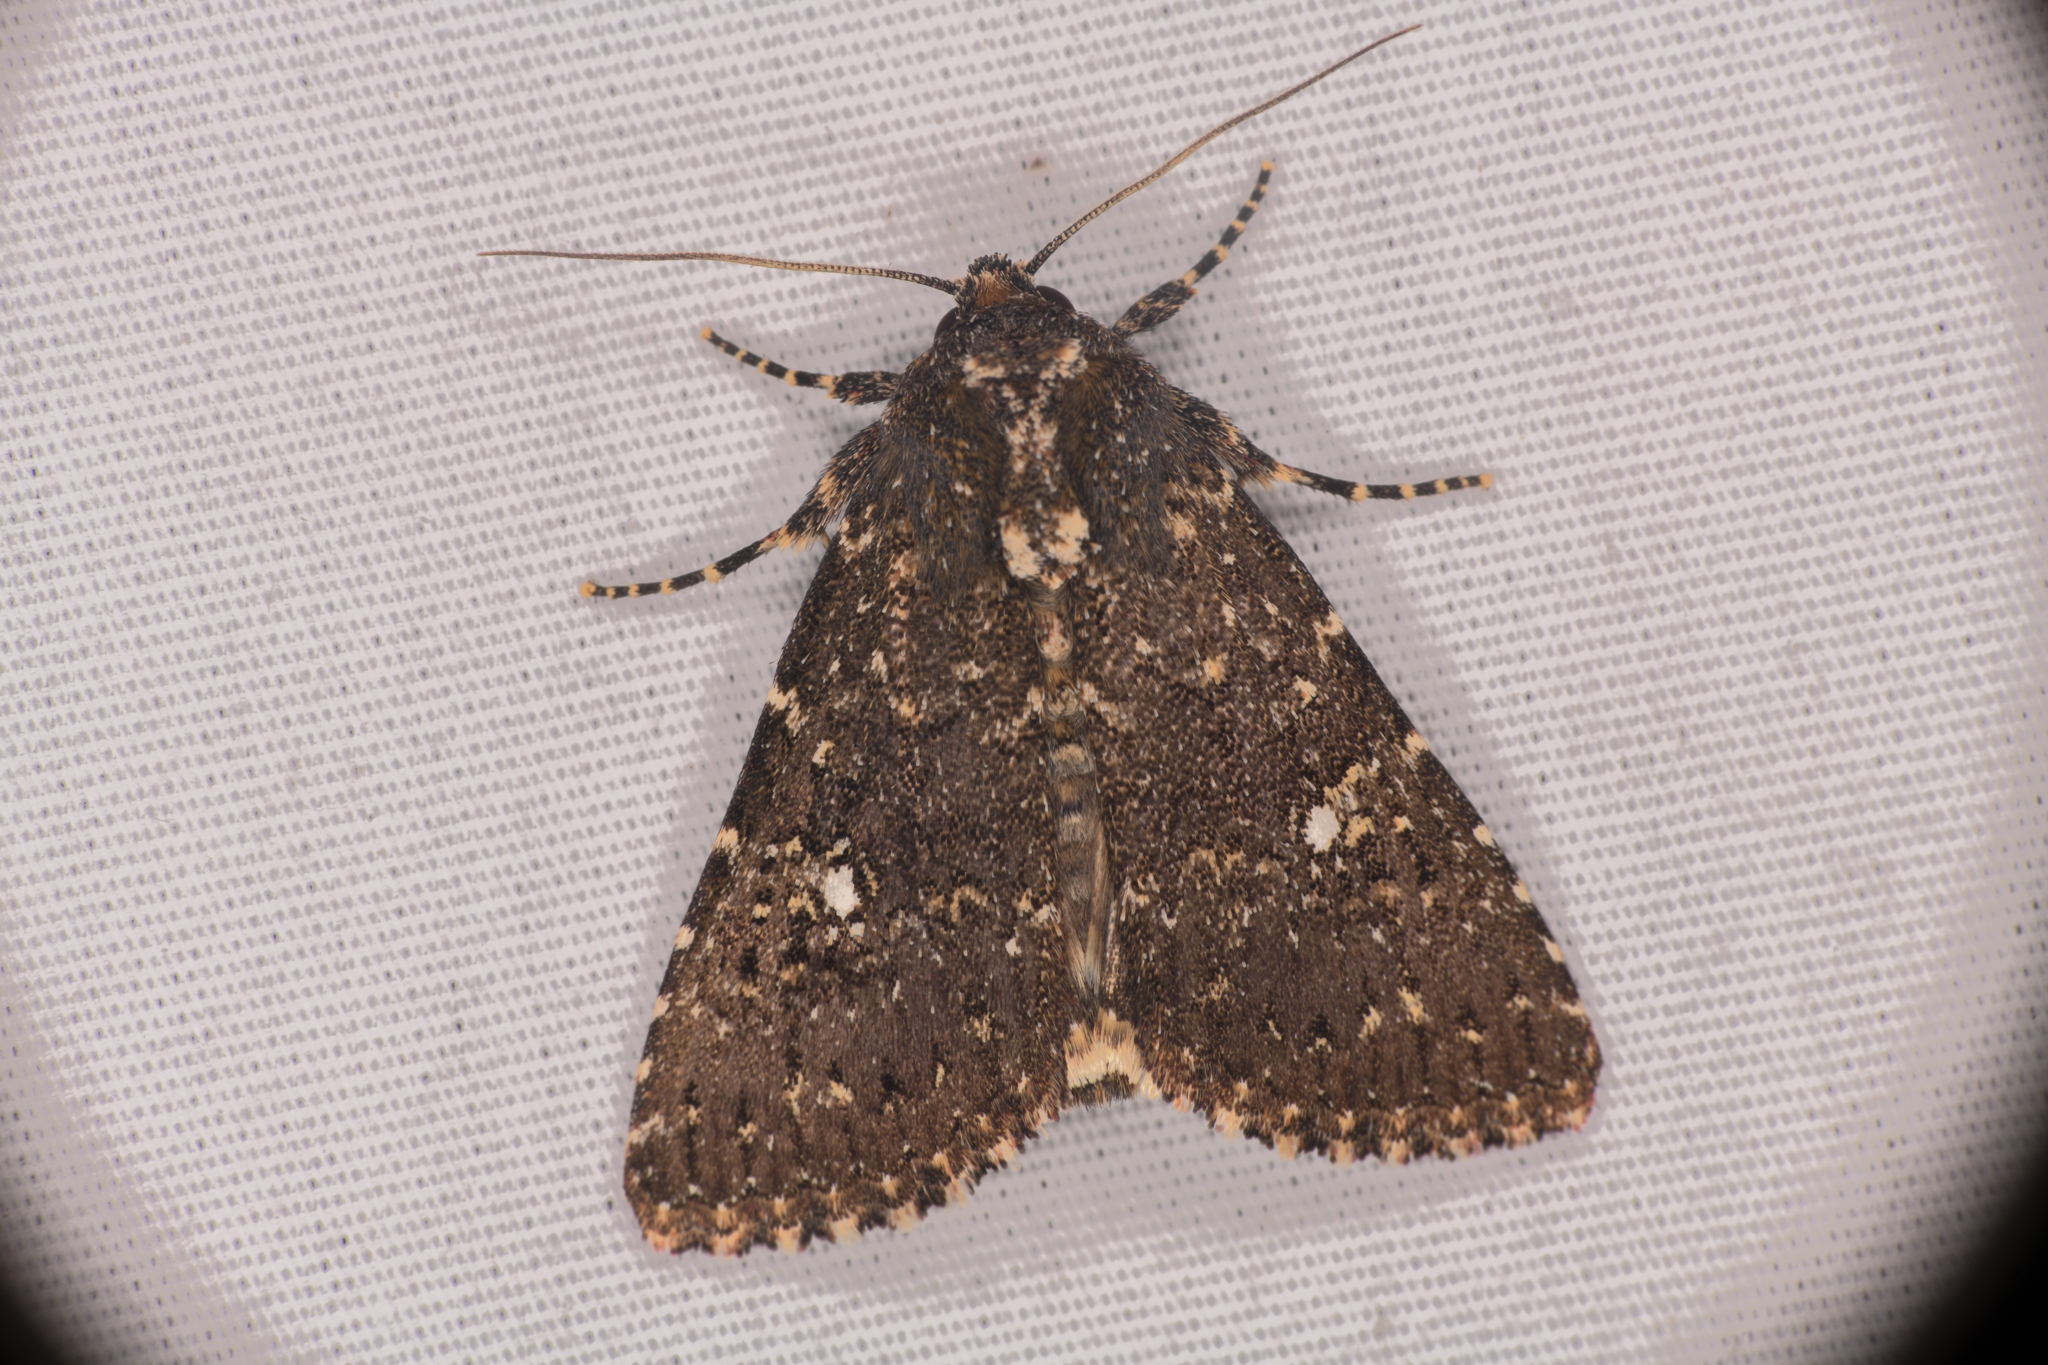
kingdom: Animalia
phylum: Arthropoda
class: Insecta
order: Lepidoptera
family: Noctuidae
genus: Condica
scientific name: Condica albolabes
